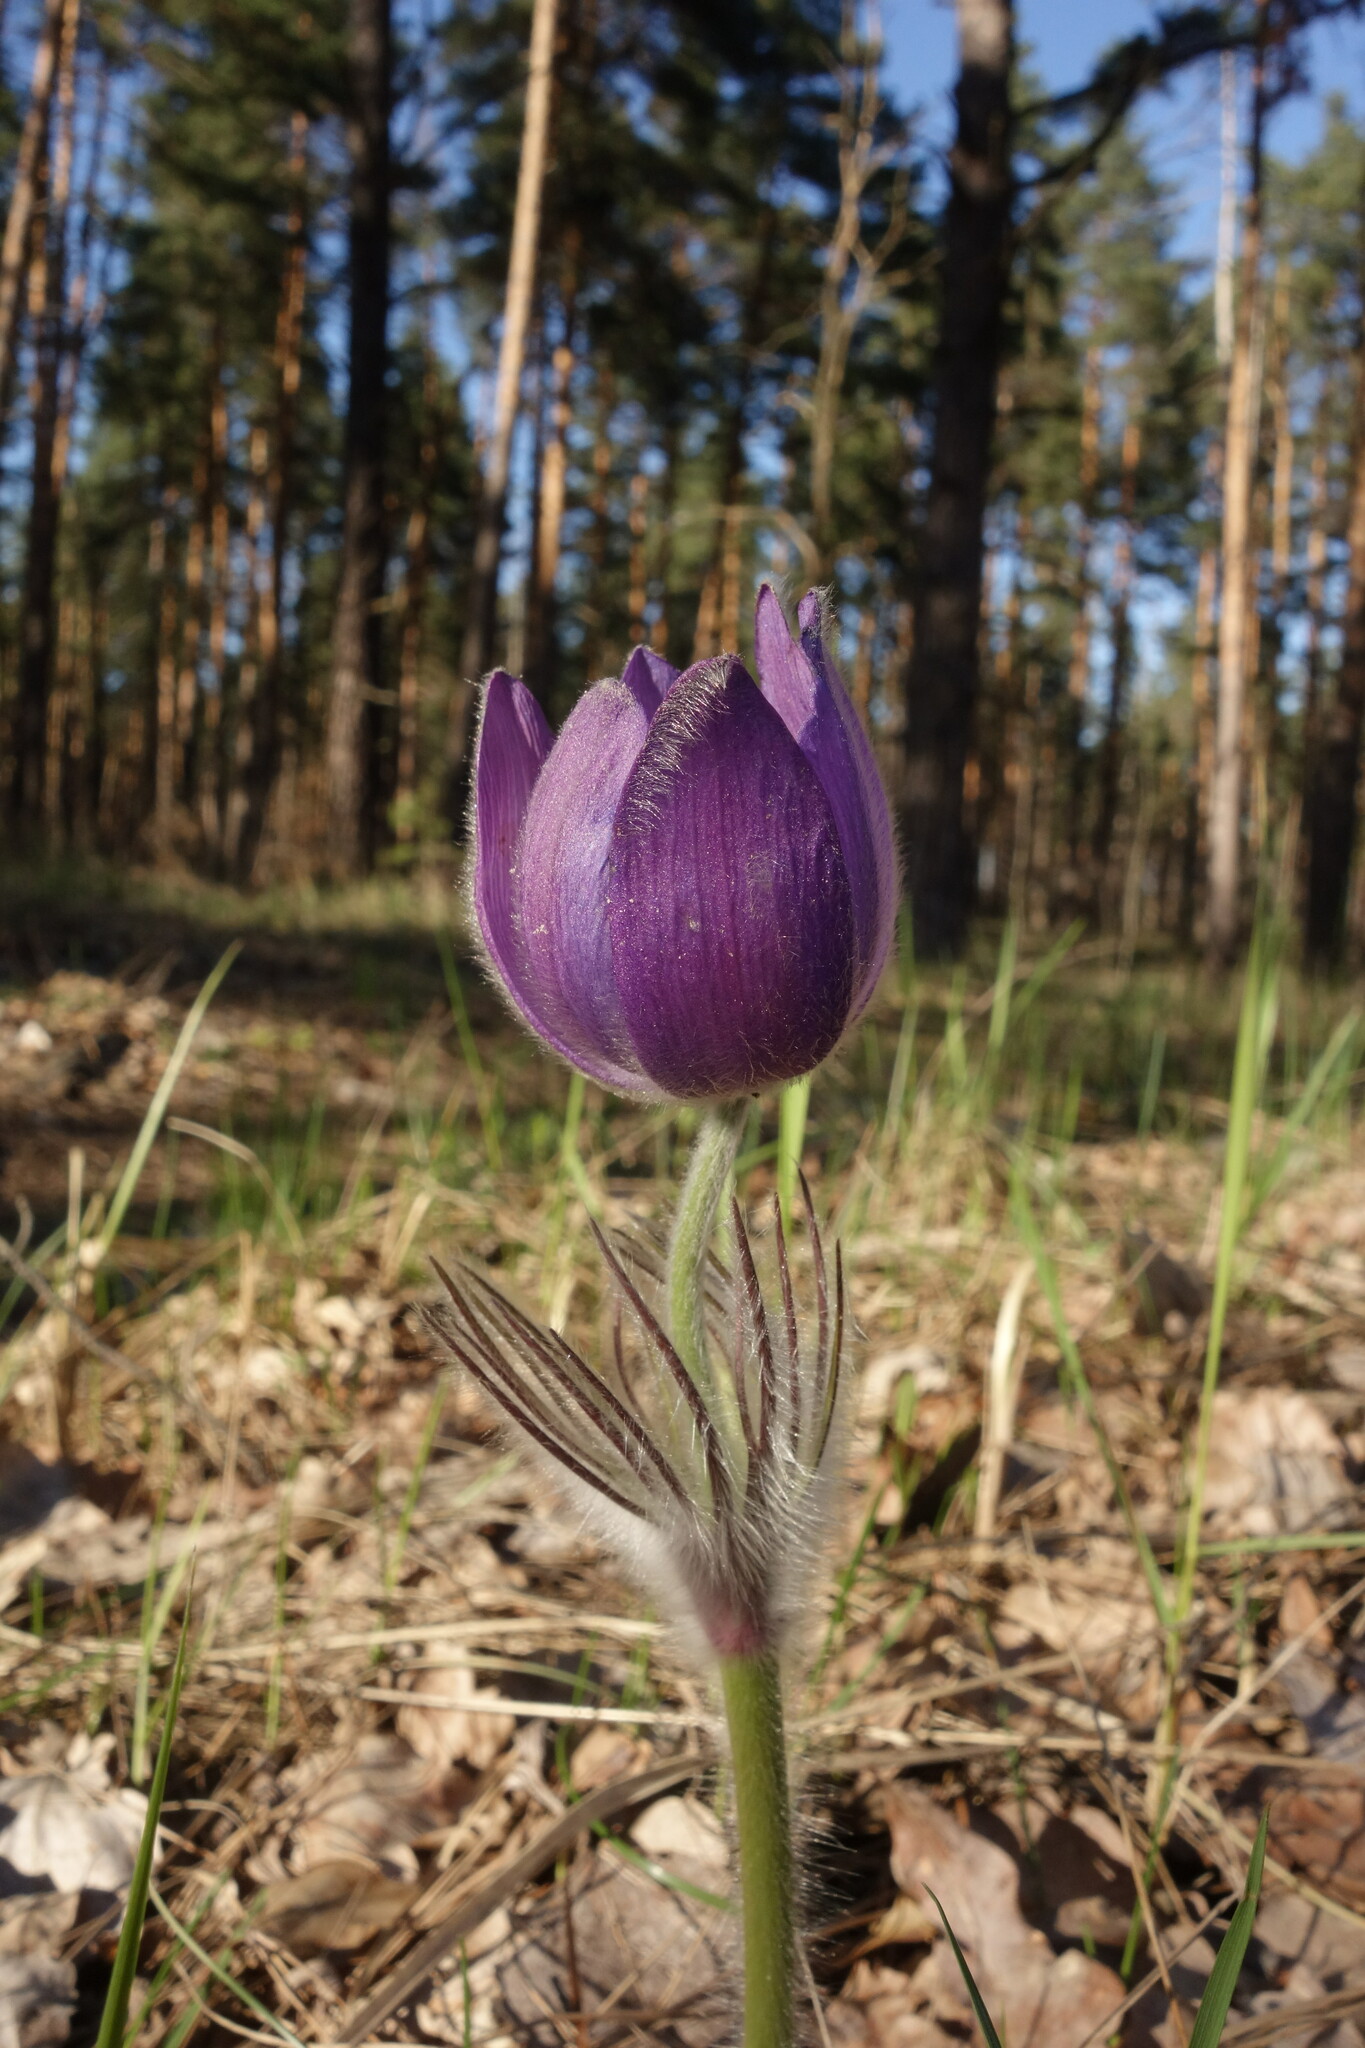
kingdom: Plantae
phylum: Tracheophyta
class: Magnoliopsida
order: Ranunculales
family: Ranunculaceae
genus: Pulsatilla
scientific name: Pulsatilla patens
